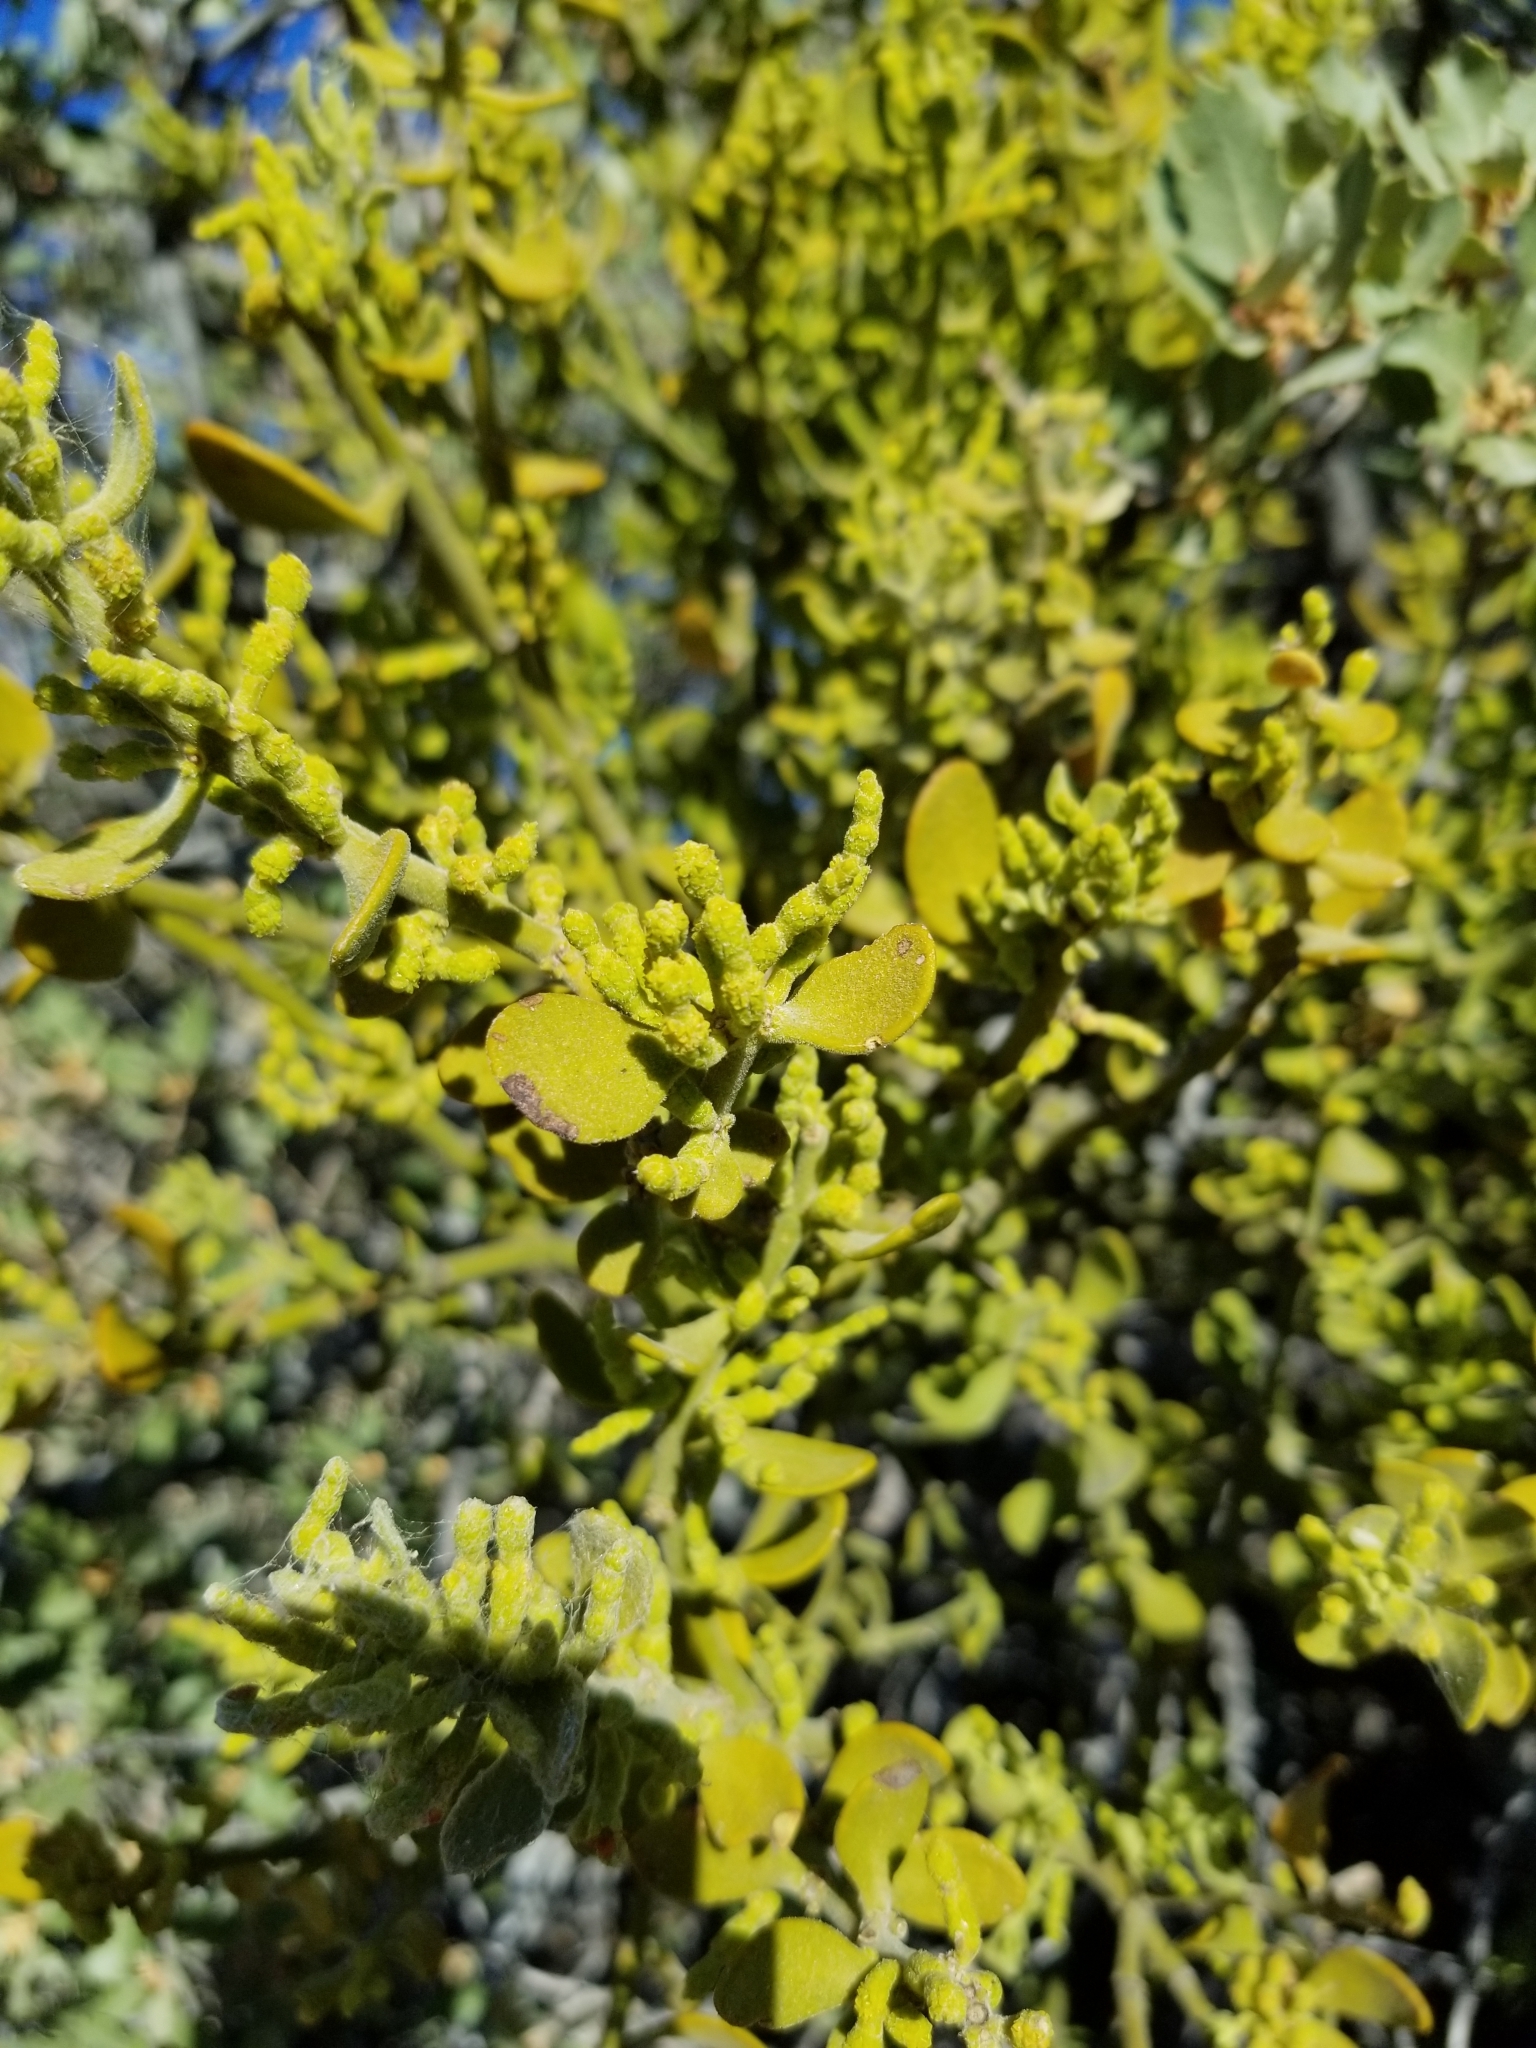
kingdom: Plantae
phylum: Tracheophyta
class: Magnoliopsida
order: Santalales
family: Viscaceae
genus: Phoradendron
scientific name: Phoradendron leucarpum
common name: Pacific mistletoe
